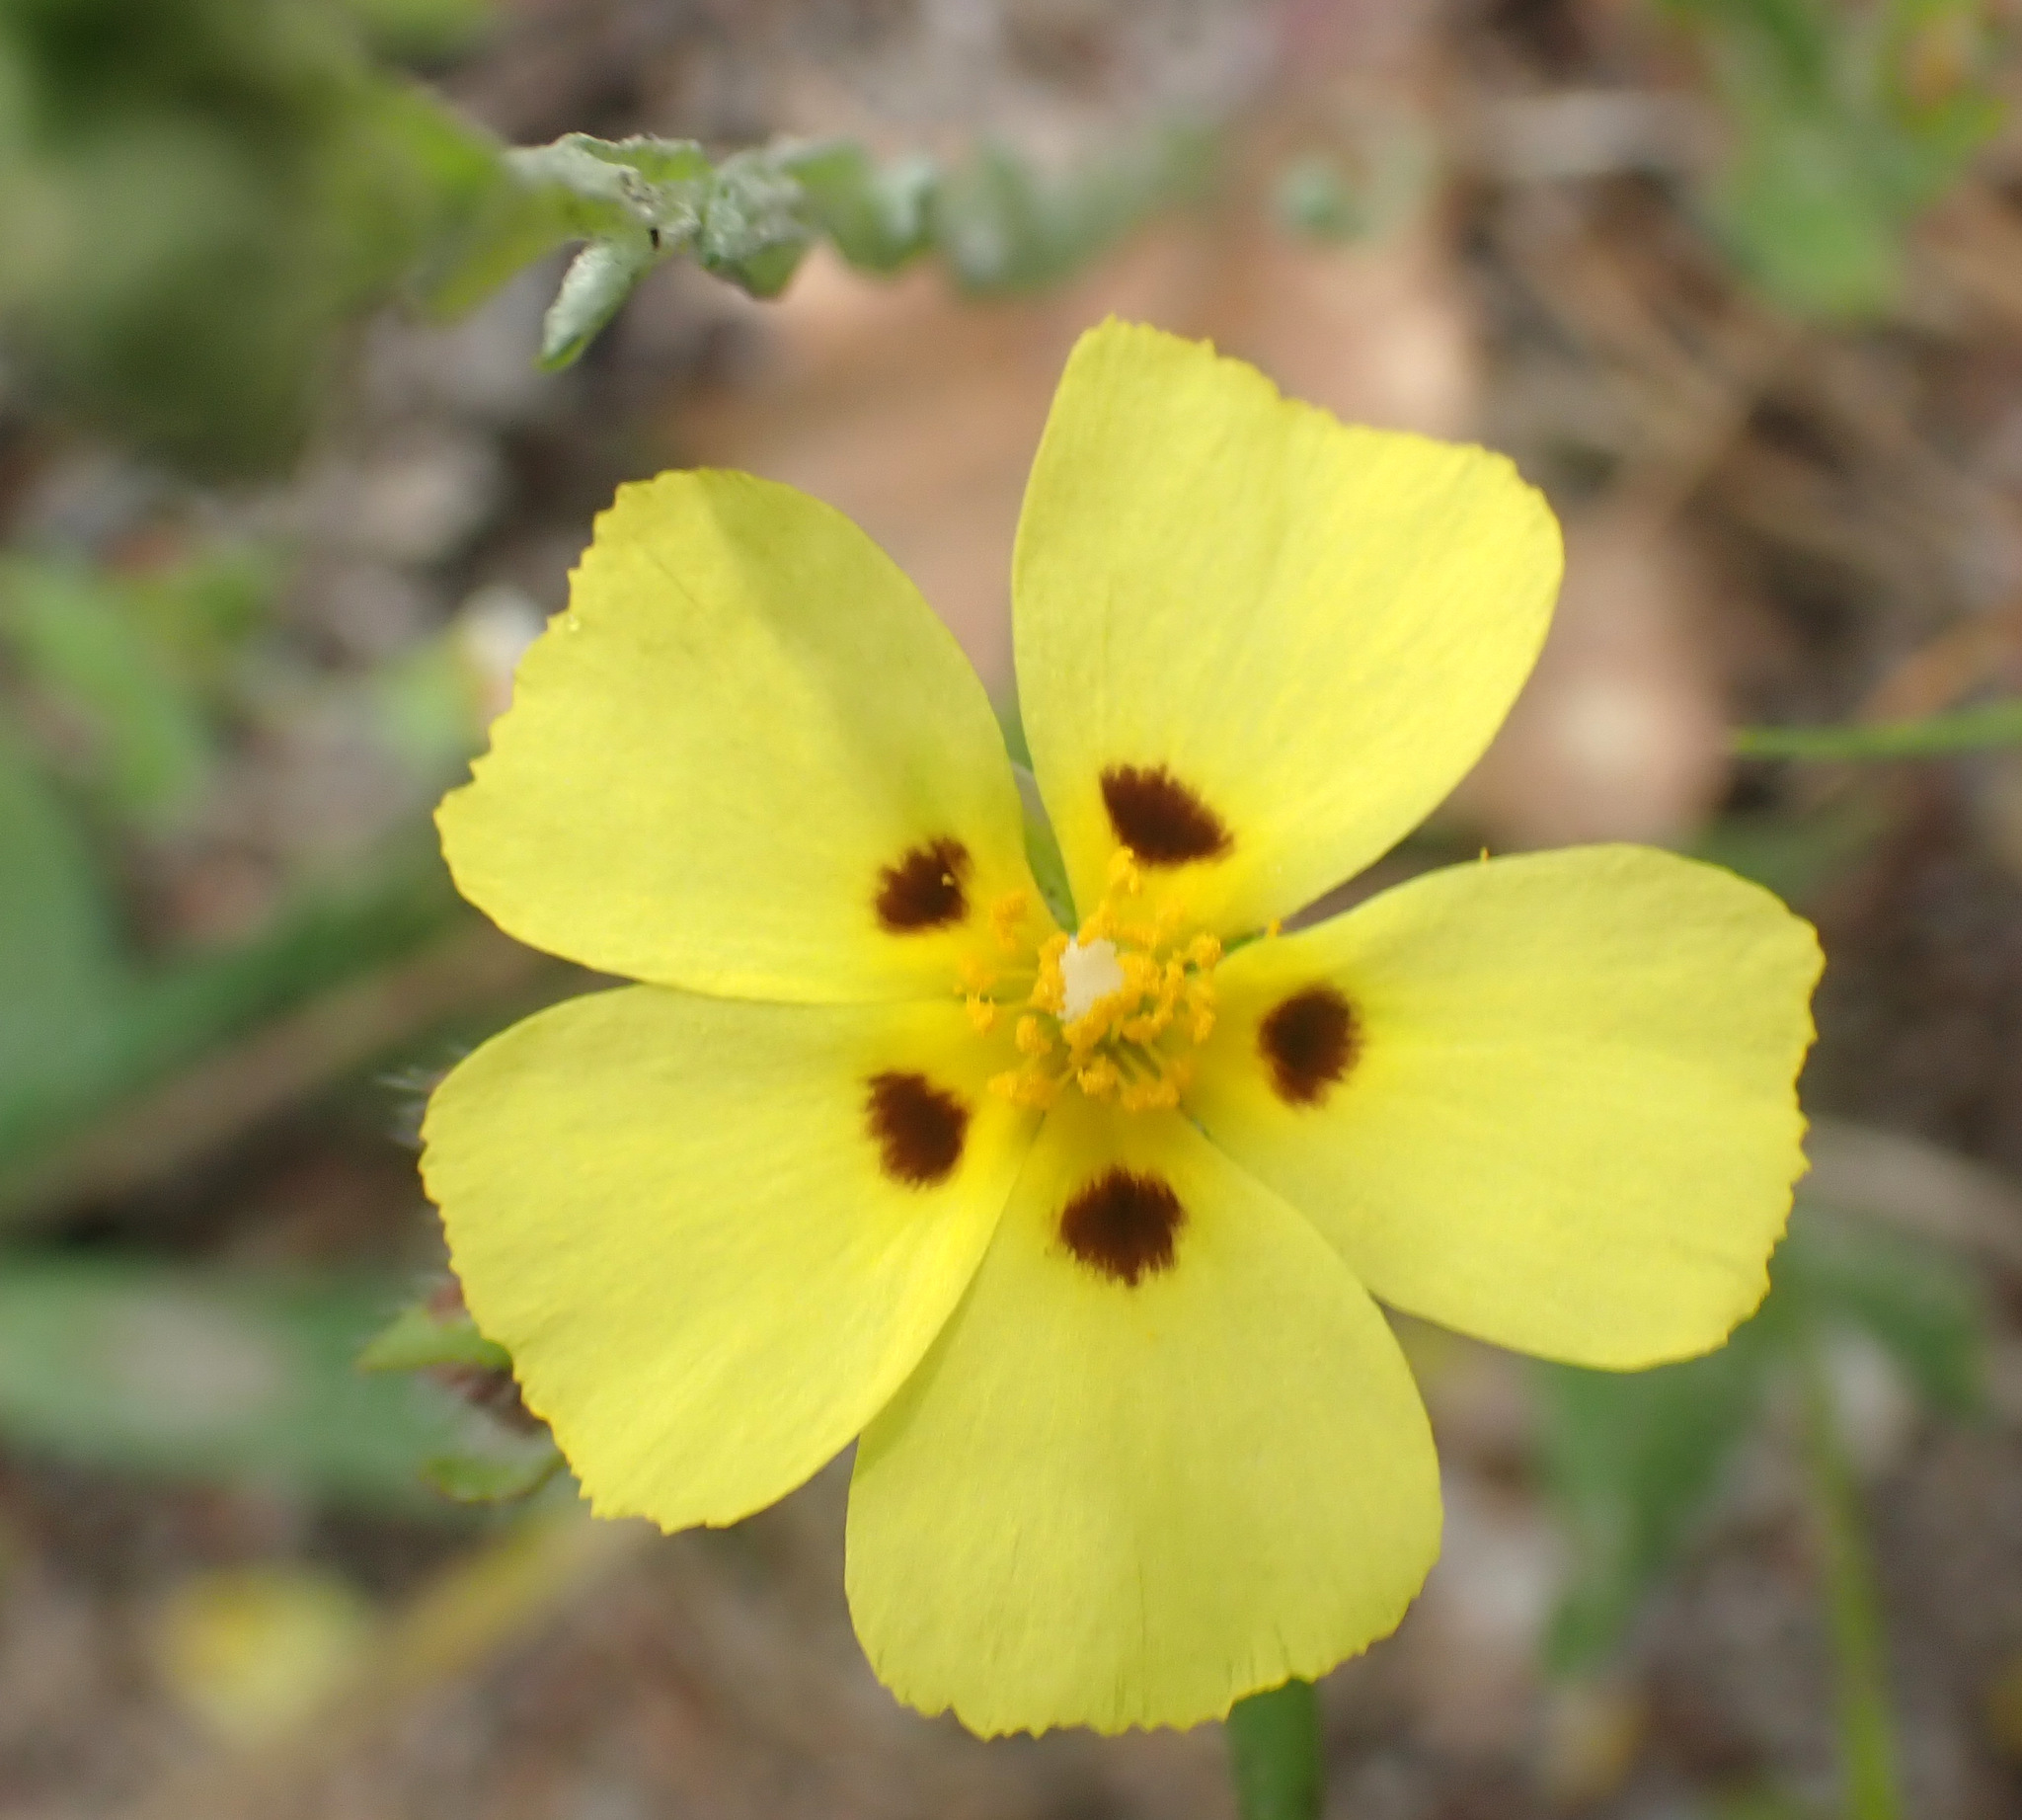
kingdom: Plantae
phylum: Tracheophyta
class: Magnoliopsida
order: Malvales
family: Cistaceae
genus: Tuberaria
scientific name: Tuberaria guttata
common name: Spotted rock-rose
